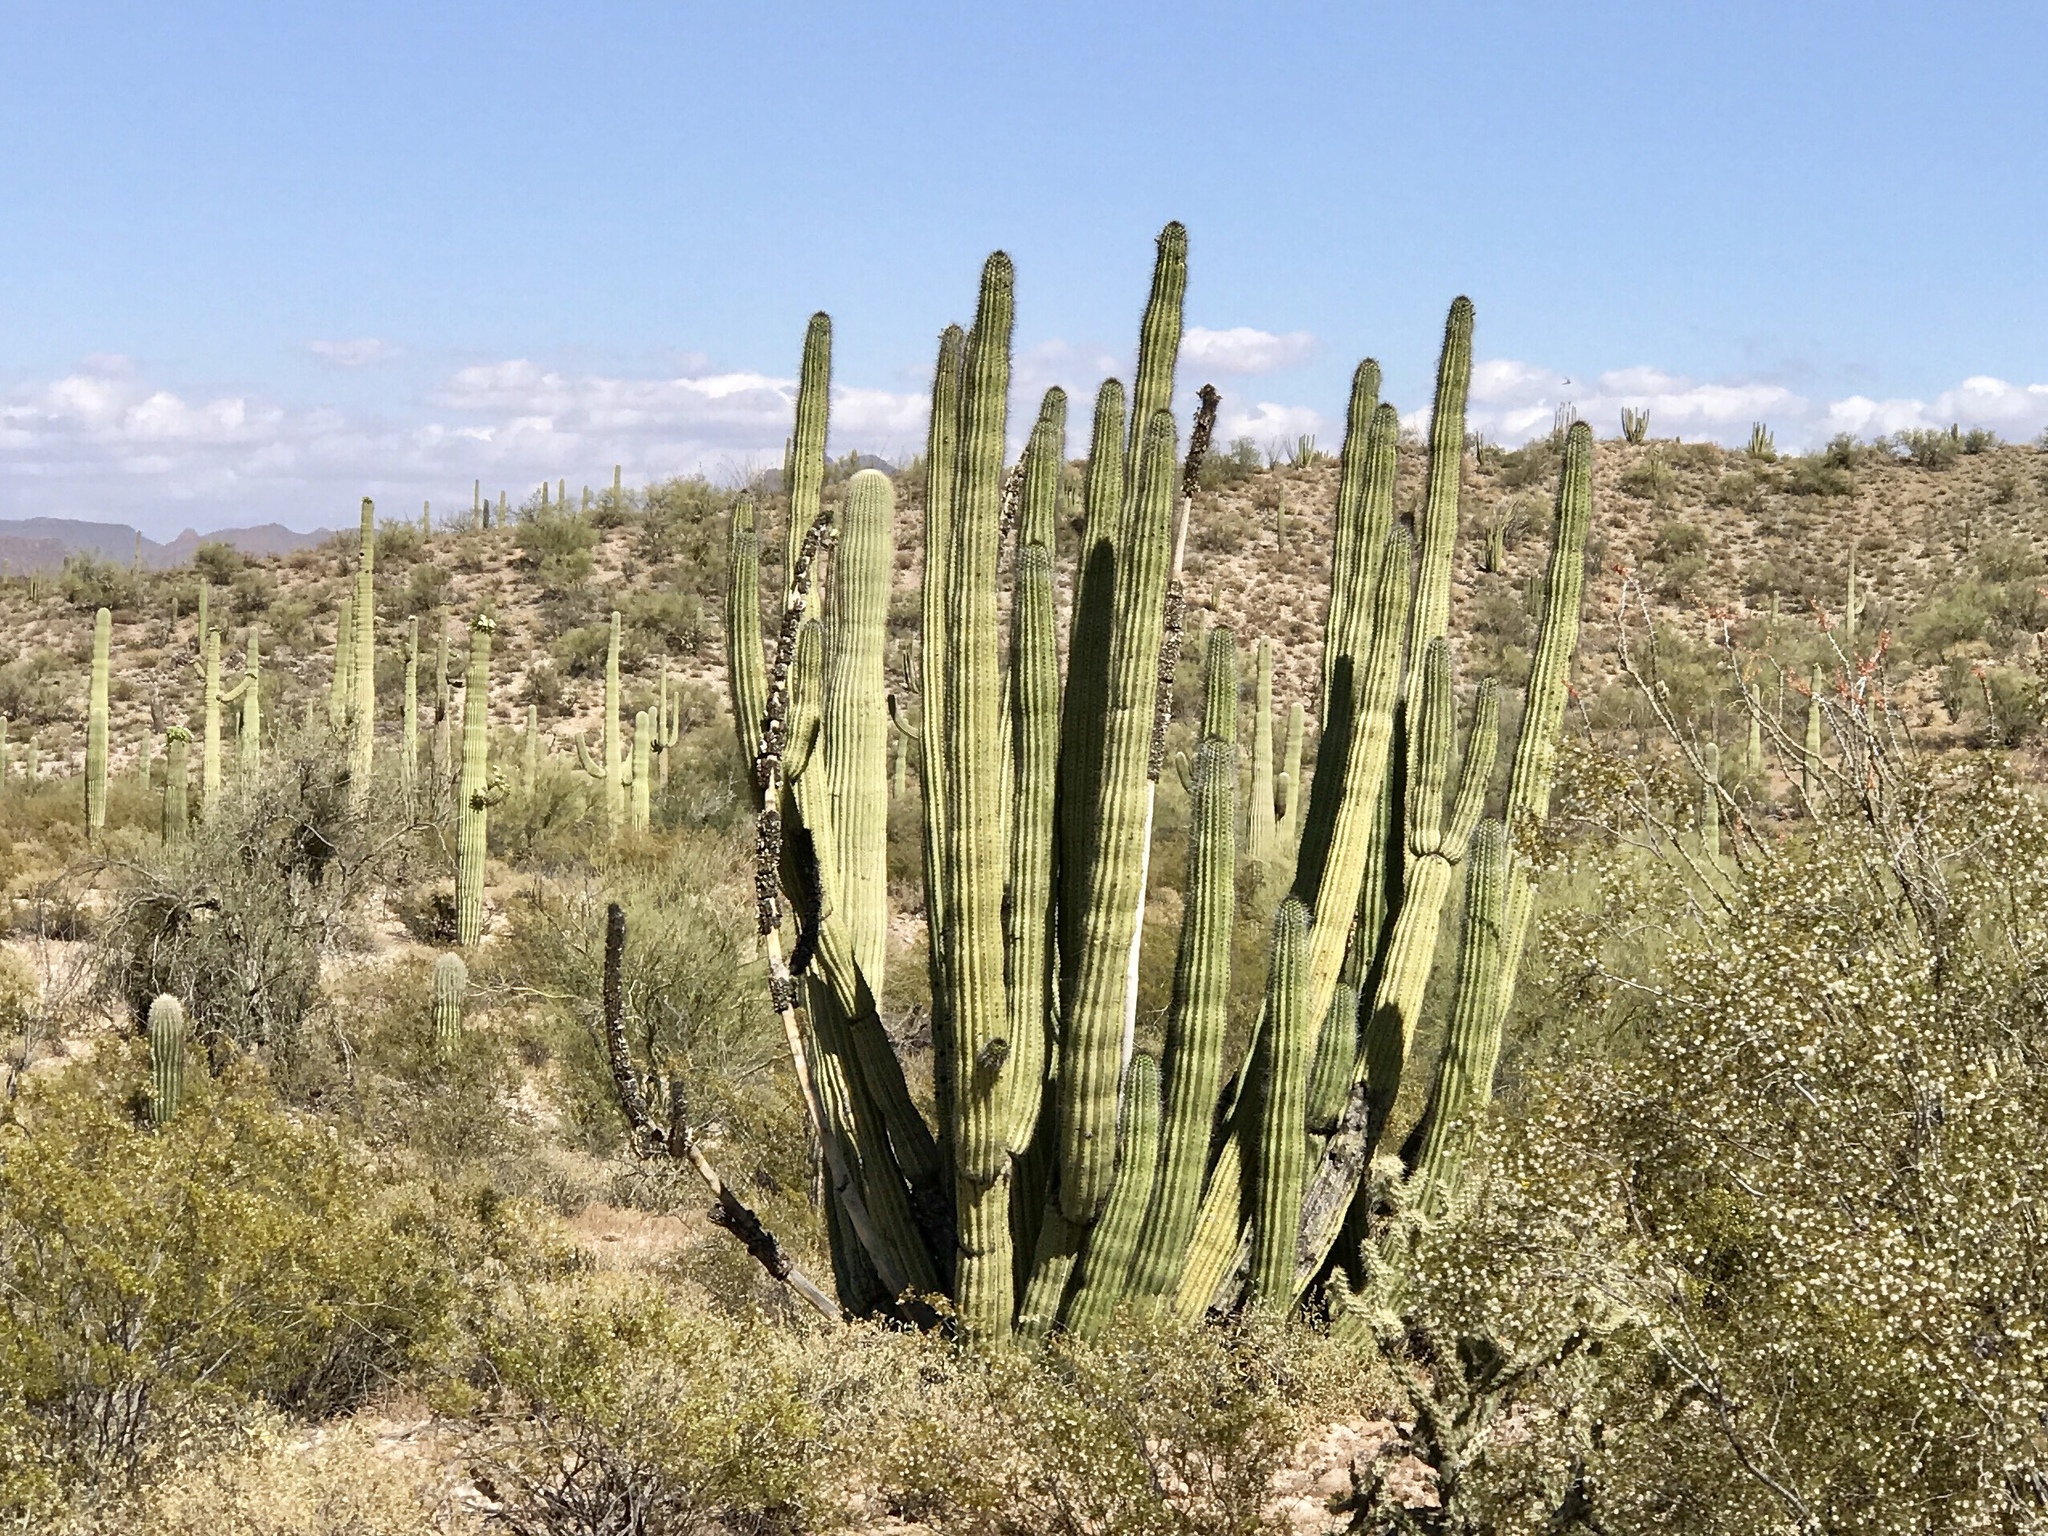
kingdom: Plantae
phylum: Tracheophyta
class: Magnoliopsida
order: Caryophyllales
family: Cactaceae
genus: Stenocereus
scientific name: Stenocereus thurberi
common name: Organ pipe cactus
